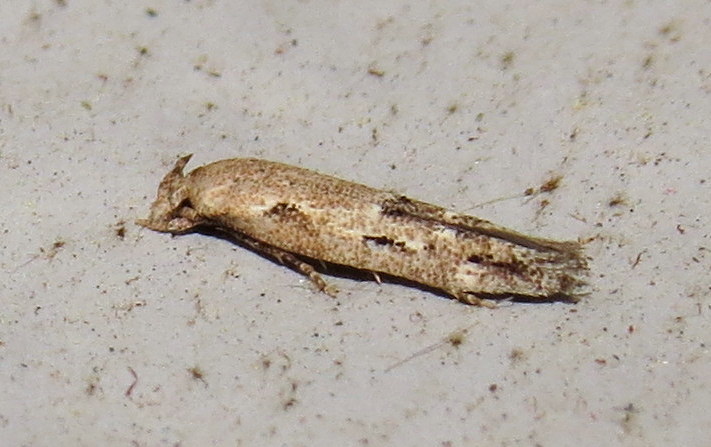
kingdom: Animalia
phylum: Arthropoda
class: Insecta
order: Lepidoptera
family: Momphidae
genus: Mompha
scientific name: Mompha brevivittella
